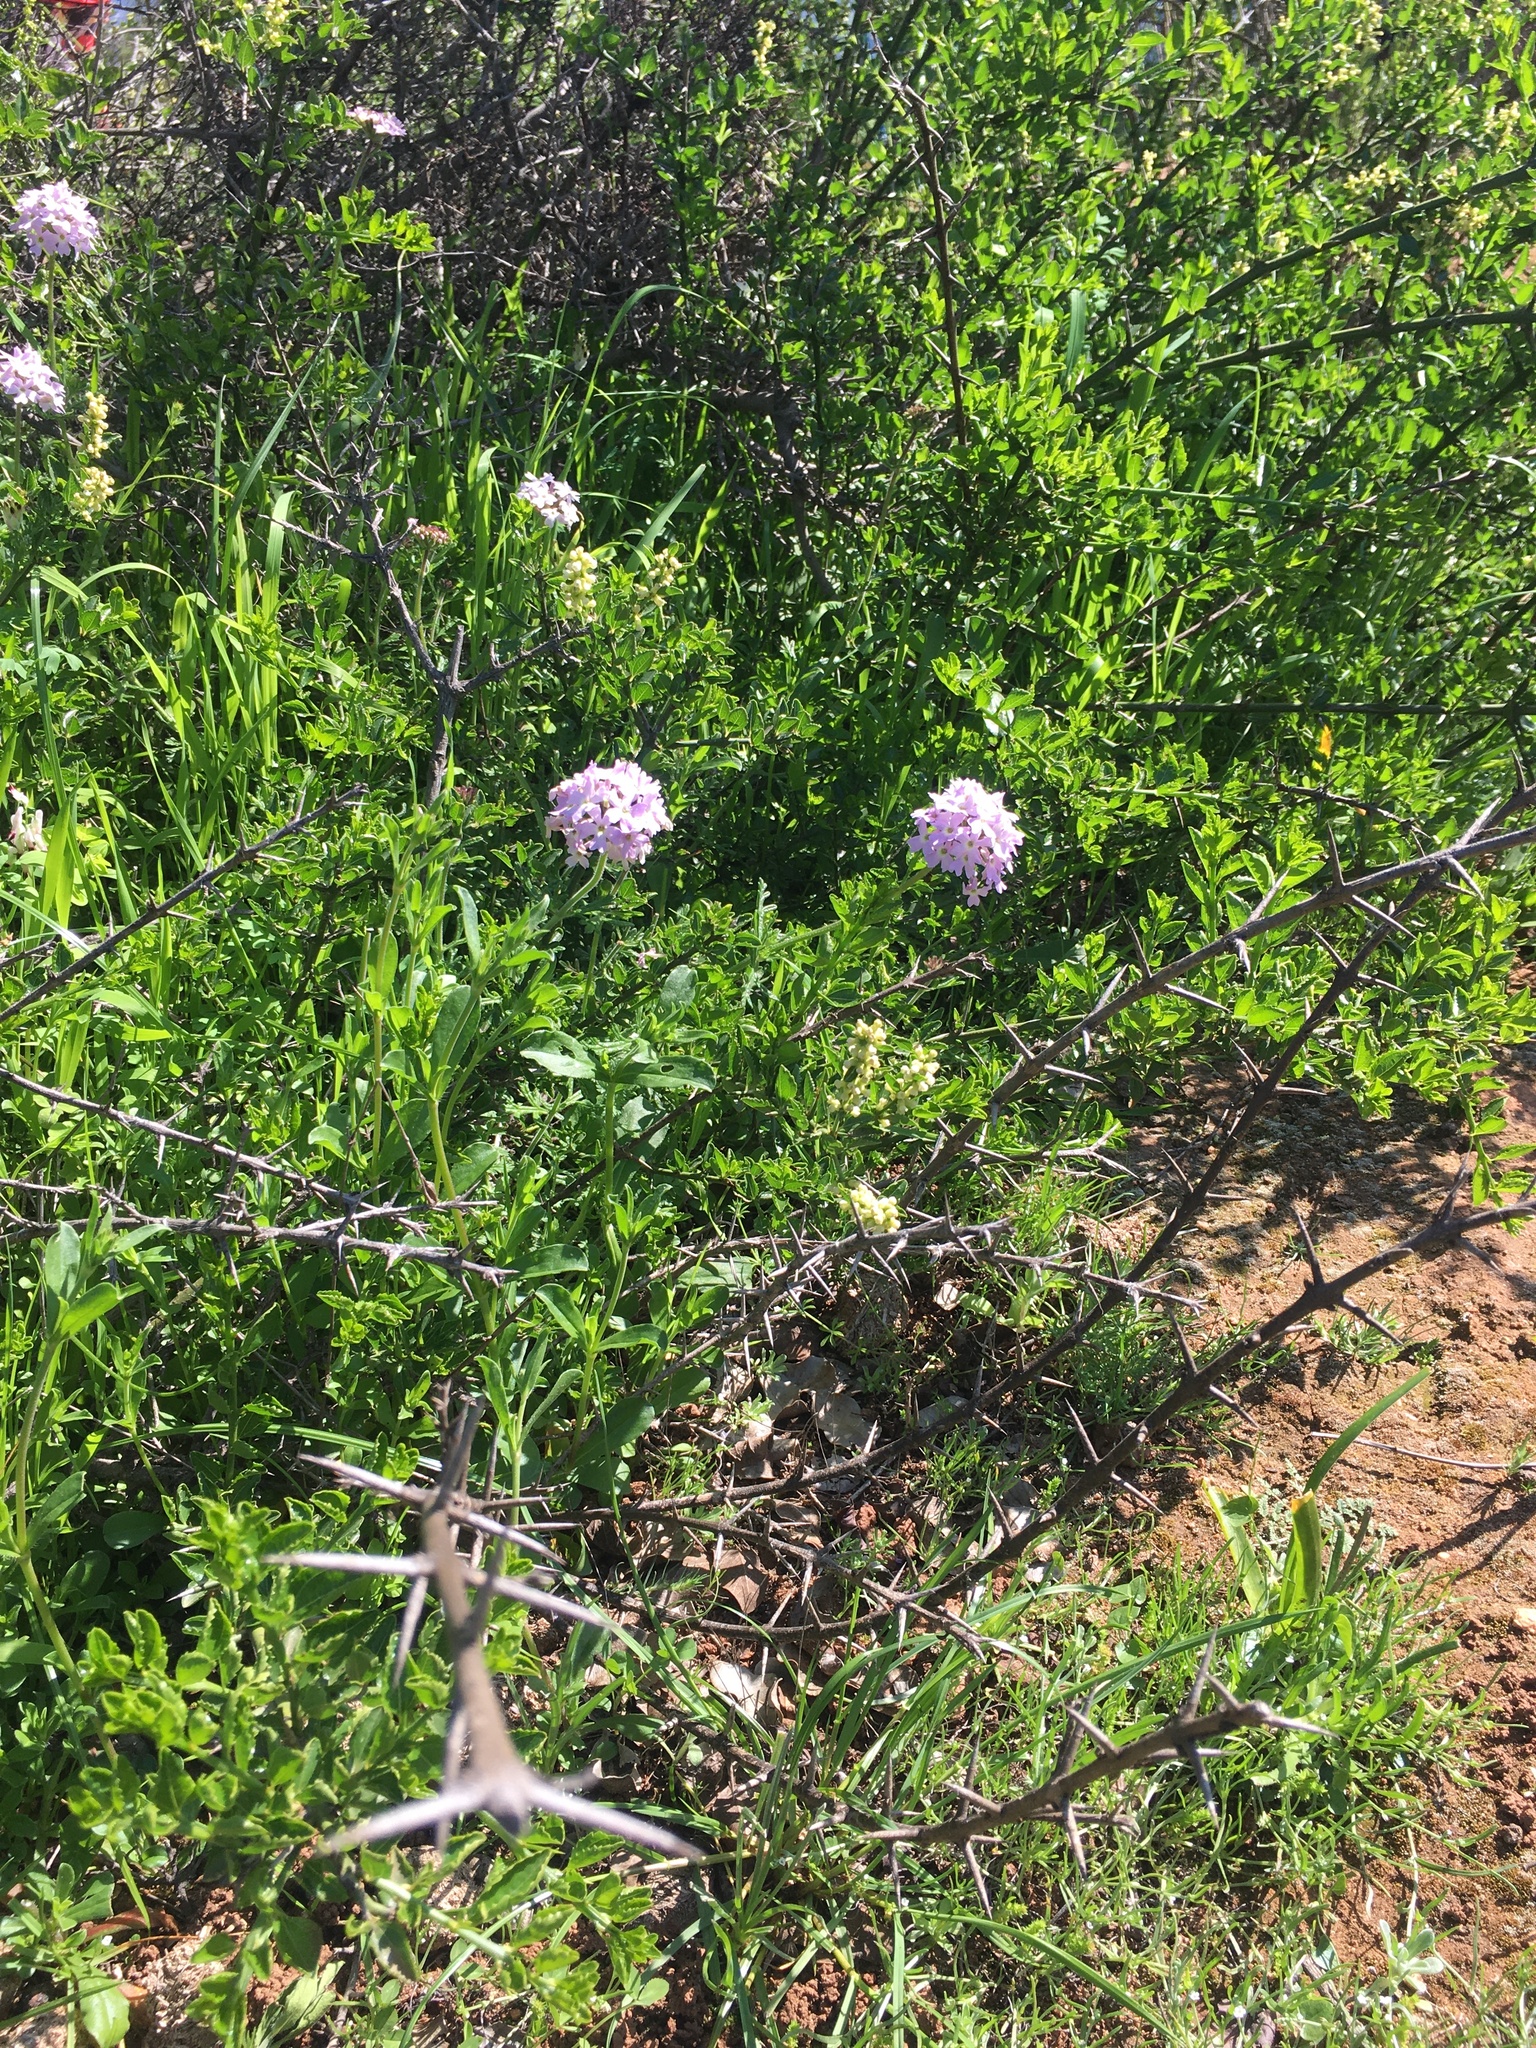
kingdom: Plantae
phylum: Tracheophyta
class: Magnoliopsida
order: Lamiales
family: Verbenaceae
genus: Verbena
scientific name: Verbena laciniata
